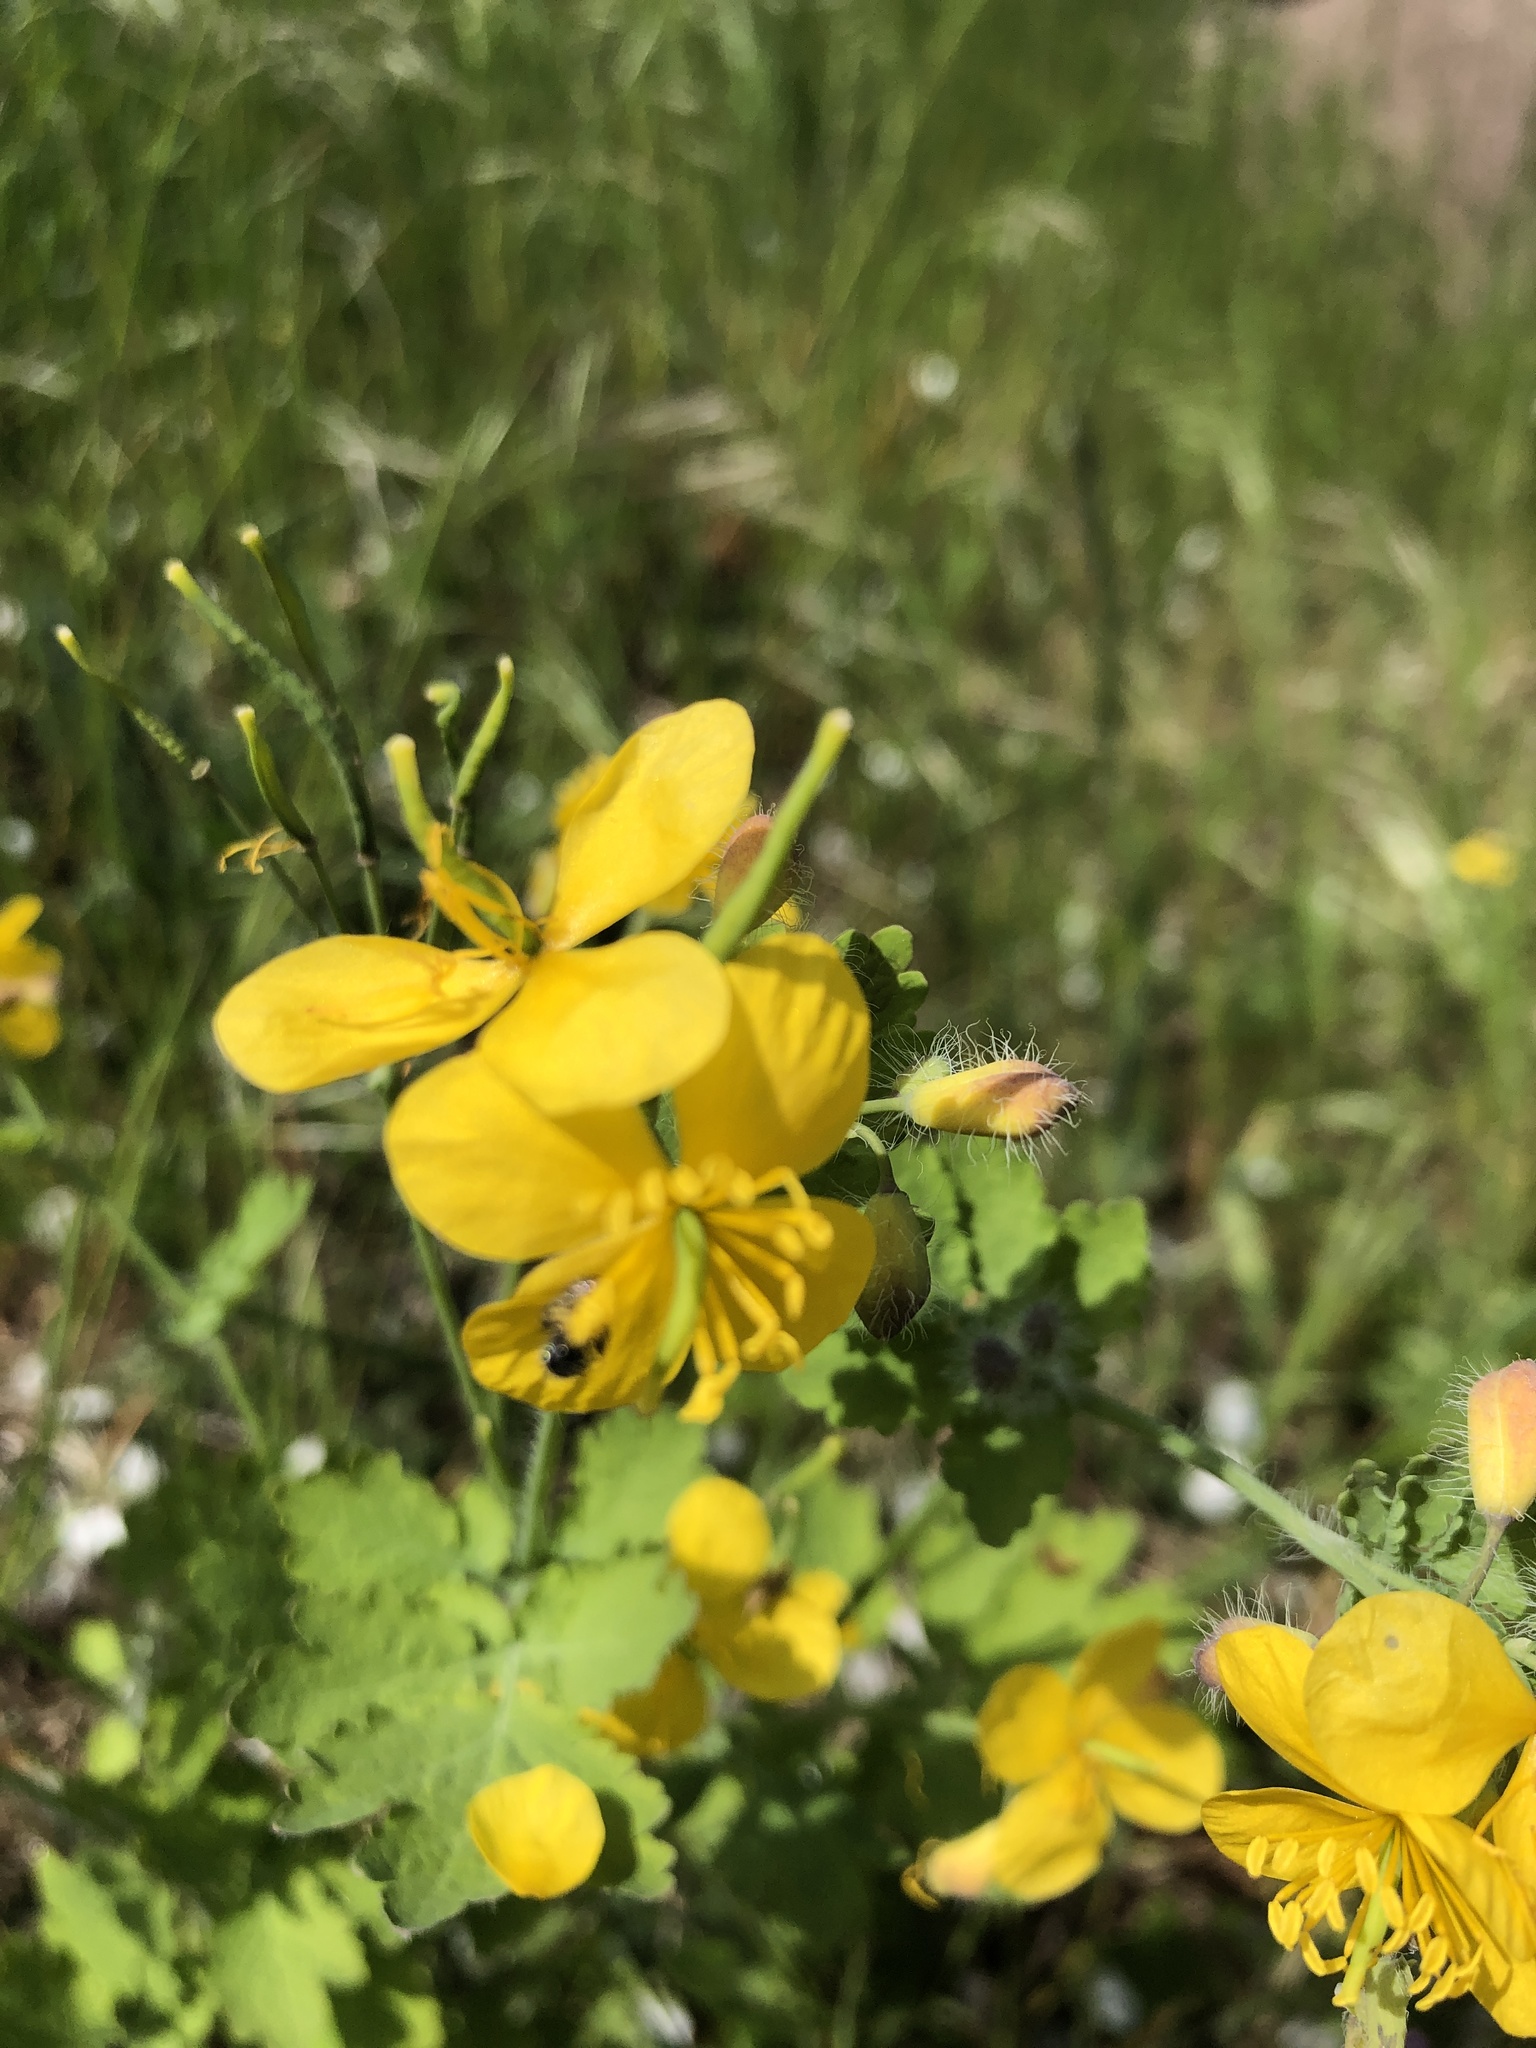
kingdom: Plantae
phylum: Tracheophyta
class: Magnoliopsida
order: Ranunculales
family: Papaveraceae
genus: Chelidonium
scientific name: Chelidonium majus
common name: Greater celandine
